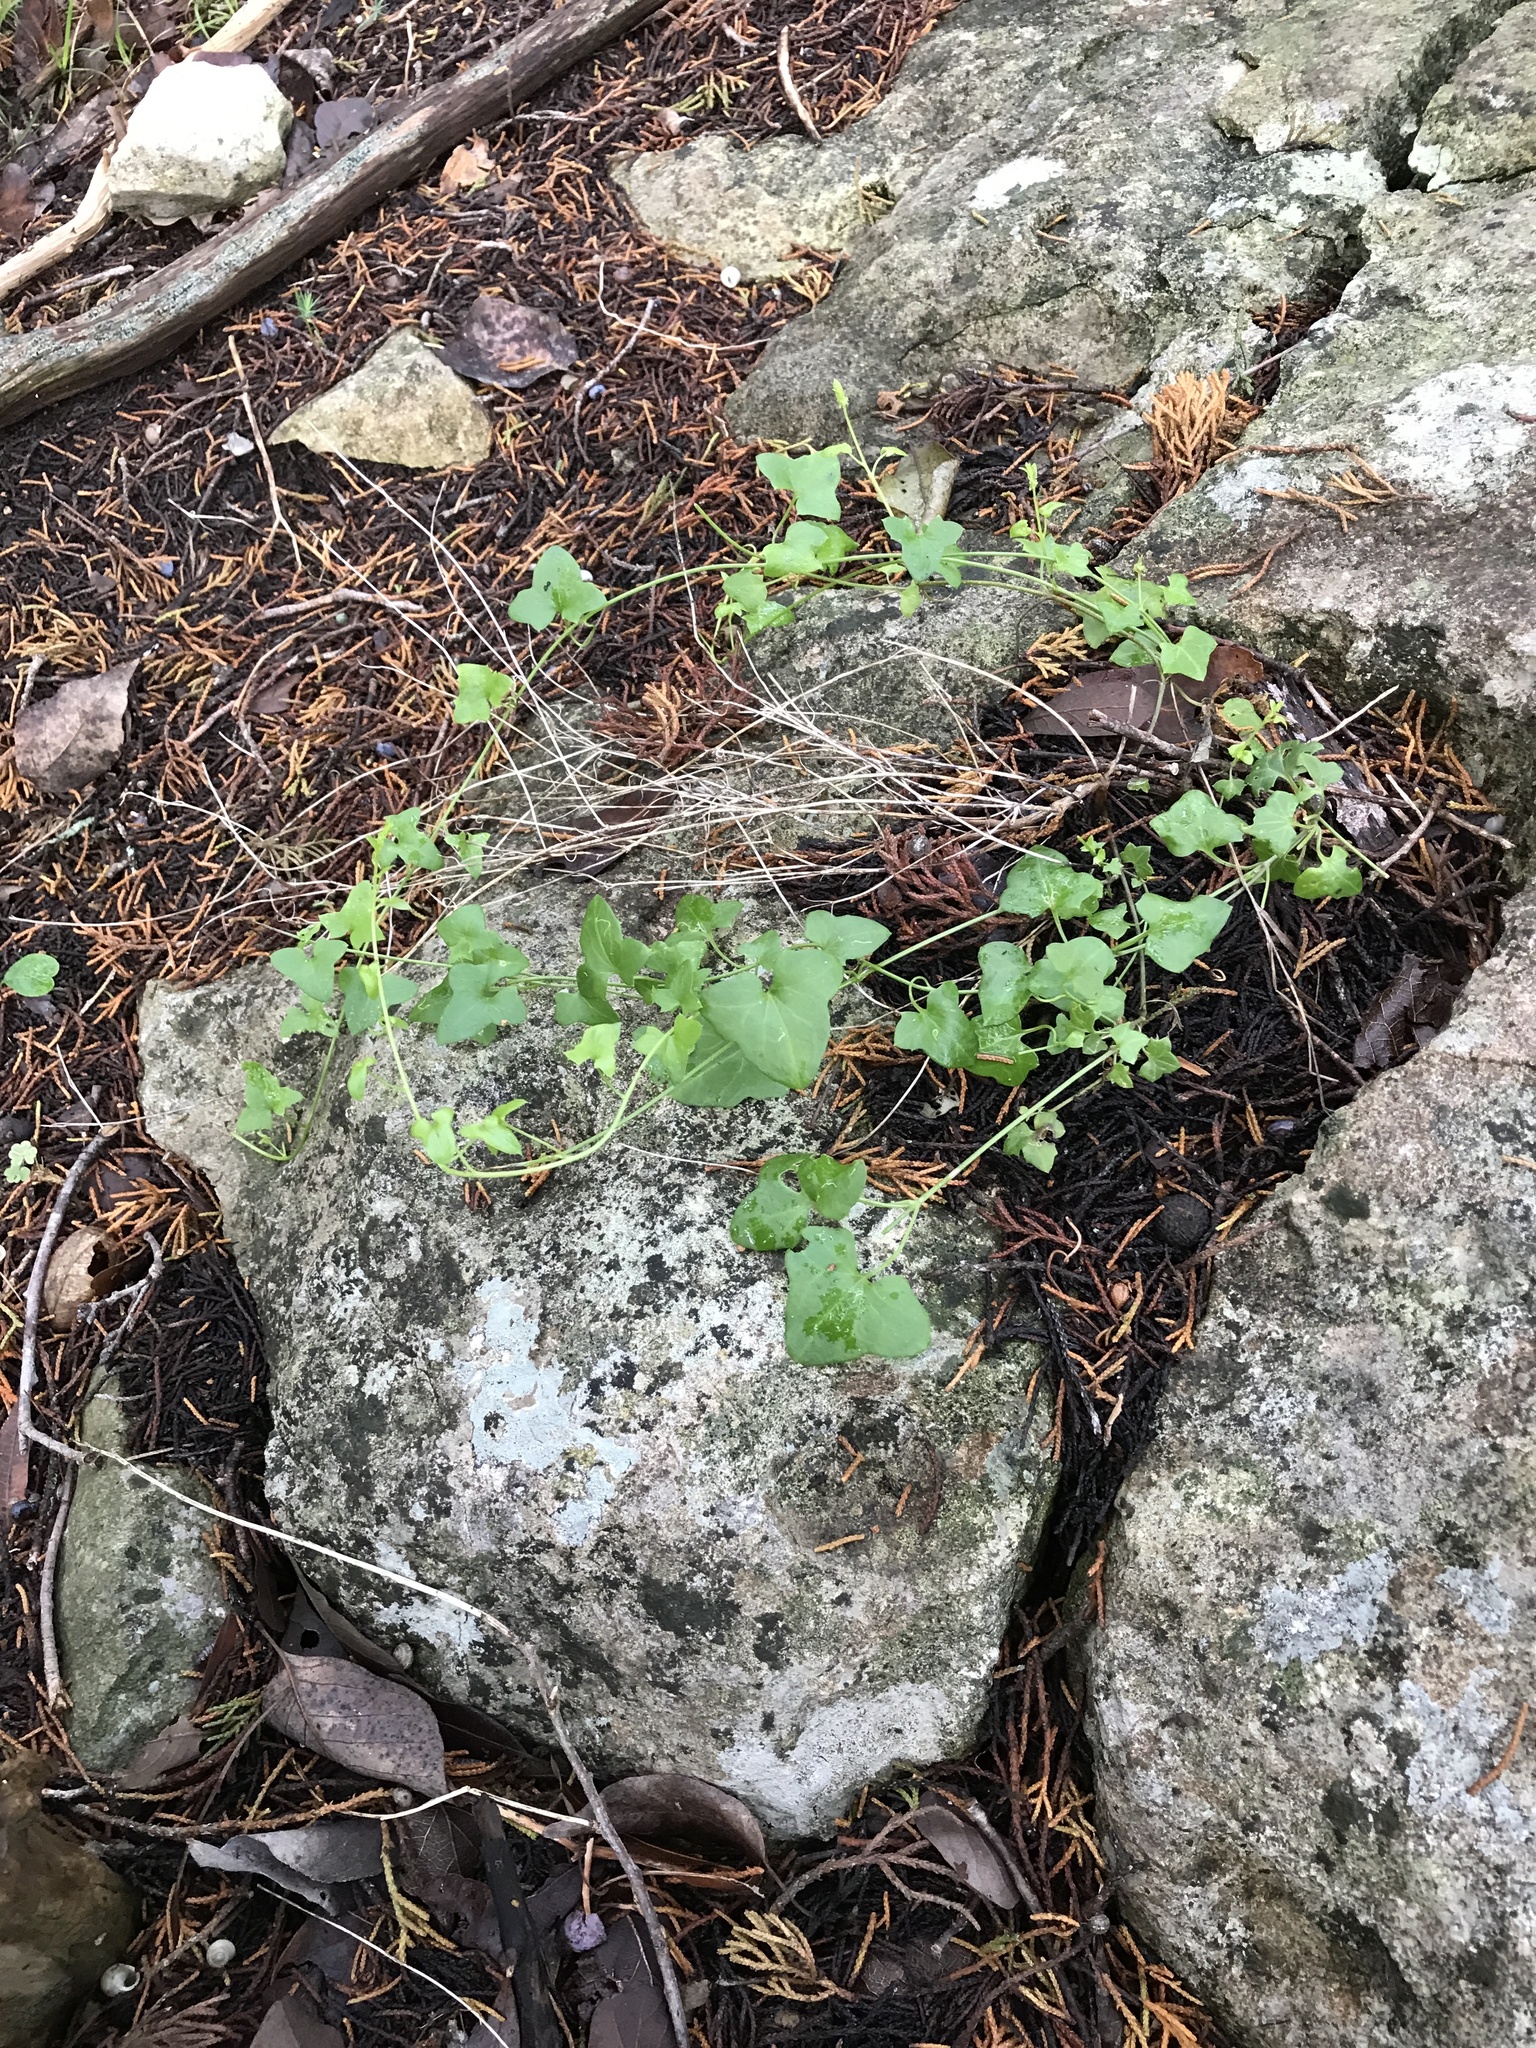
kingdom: Plantae
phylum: Tracheophyta
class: Magnoliopsida
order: Lamiales
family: Plantaginaceae
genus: Maurandella
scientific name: Maurandella antirrhiniflora
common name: Violet twining-snapdragon
